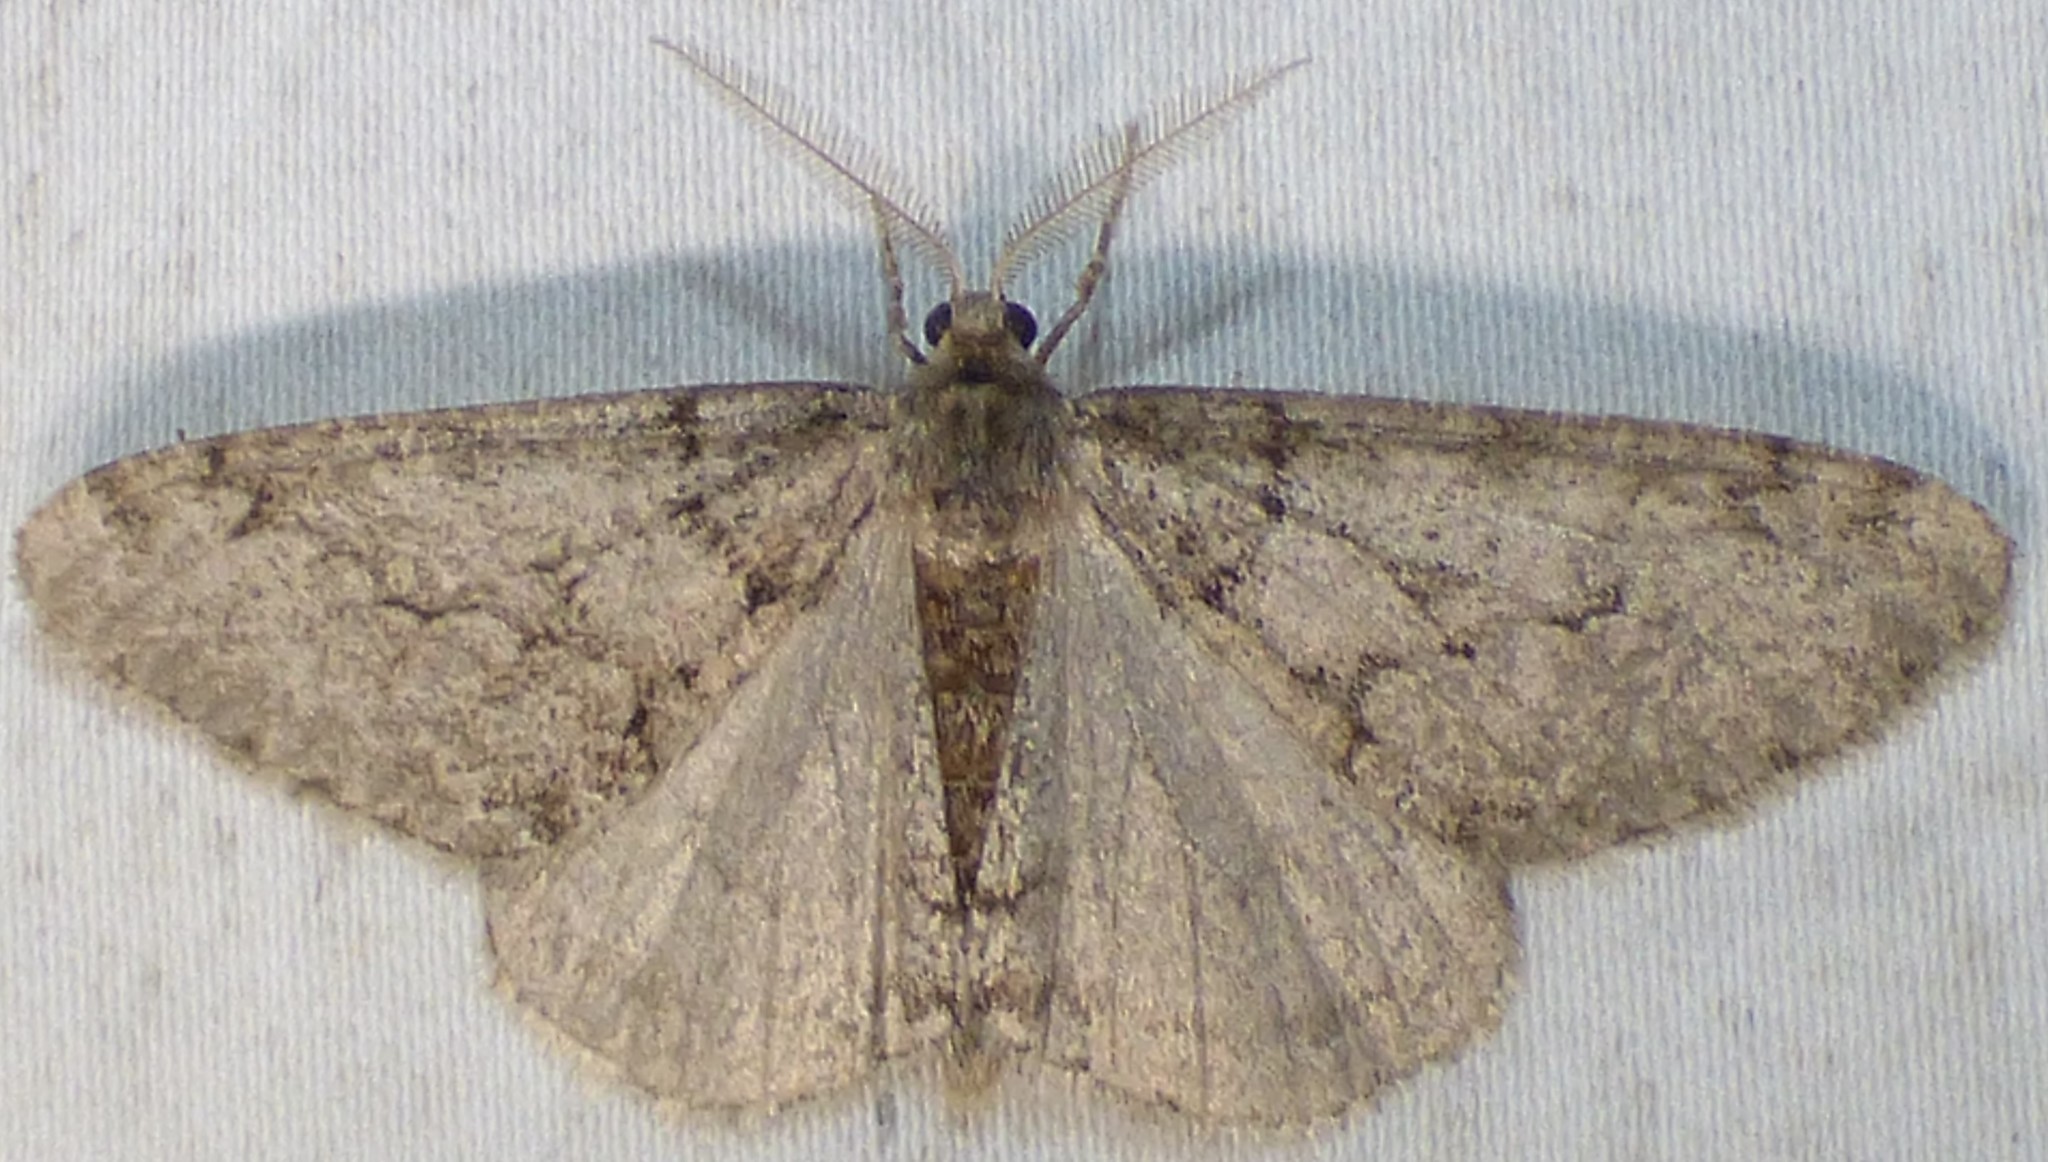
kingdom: Animalia
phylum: Arthropoda
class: Insecta
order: Lepidoptera
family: Geometridae
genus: Phigalia
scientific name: Phigalia strigataria
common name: Small phigalia
